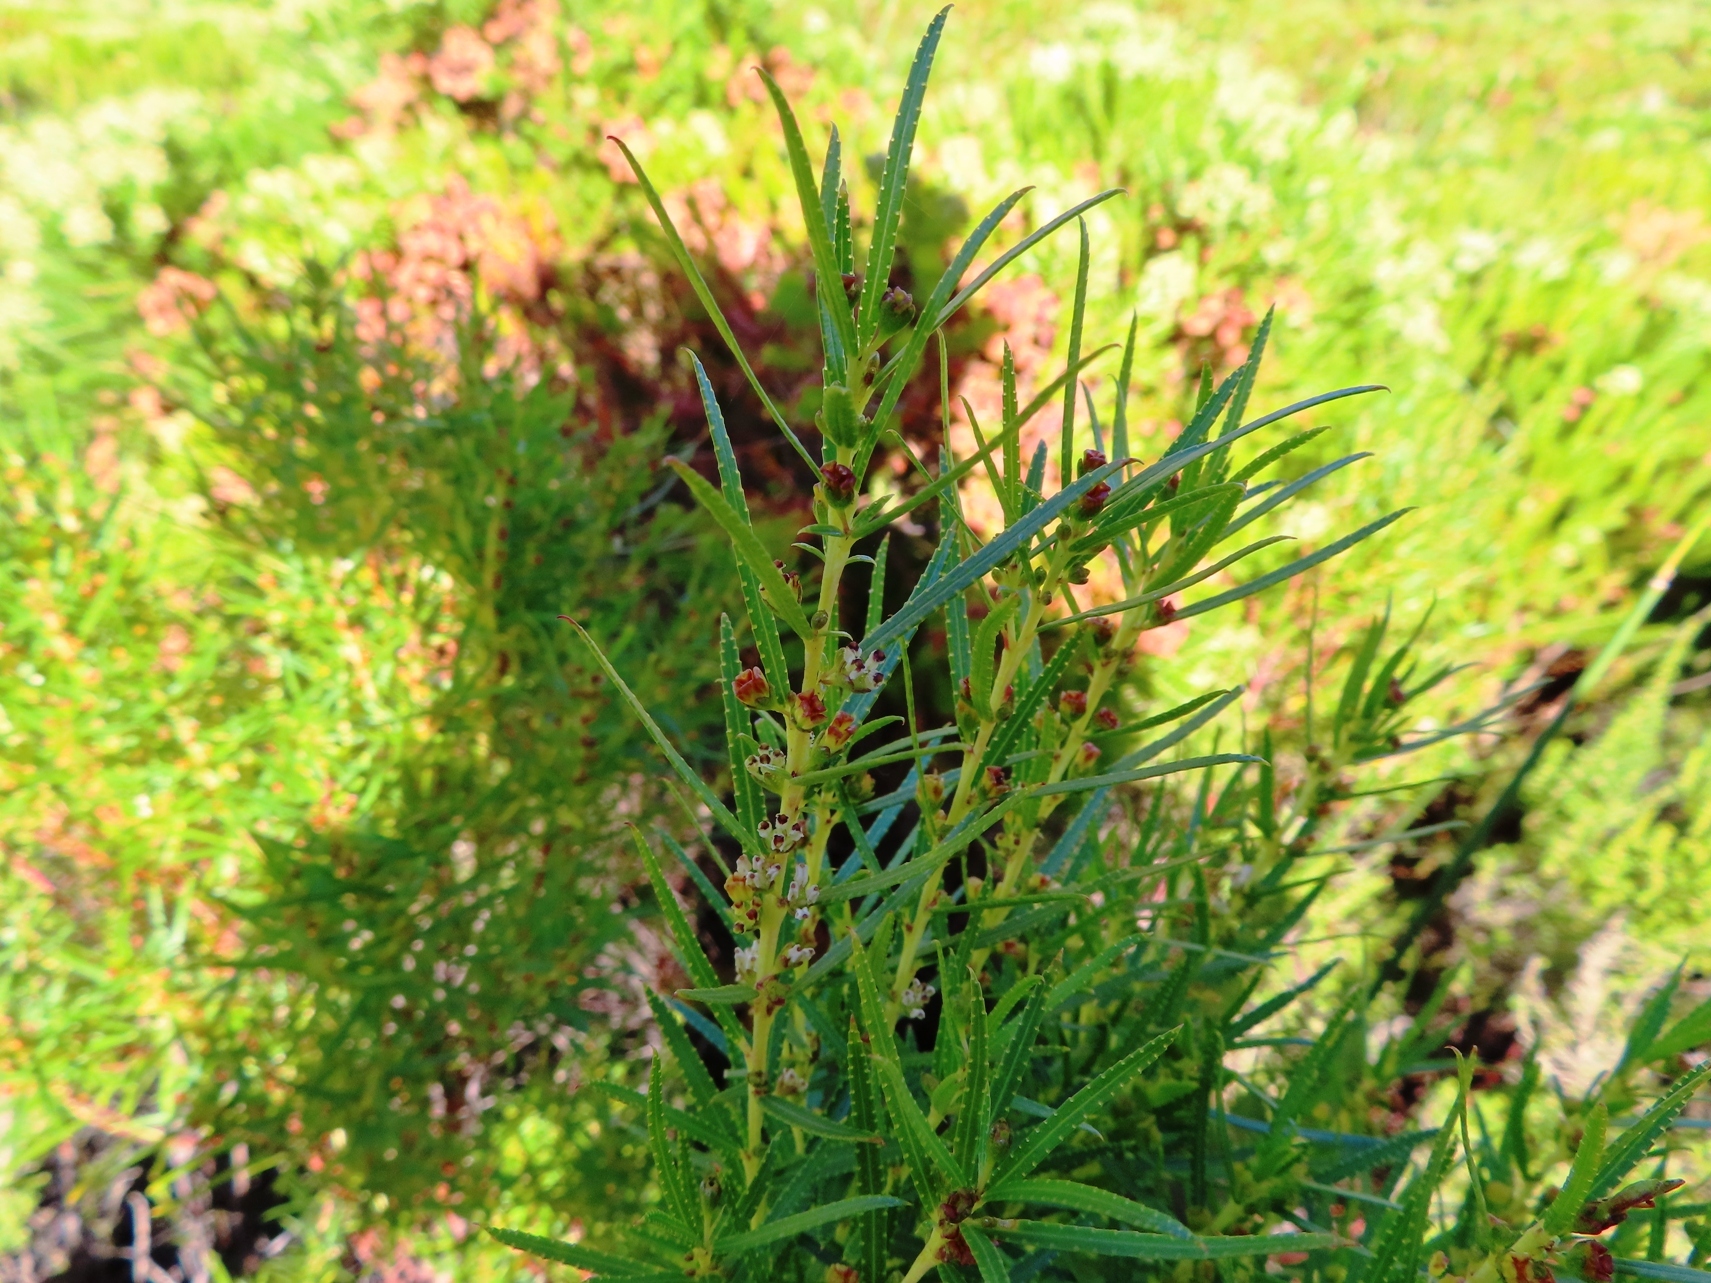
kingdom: Plantae
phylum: Tracheophyta
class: Magnoliopsida
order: Sapindales
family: Rutaceae
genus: Empleurum
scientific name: Empleurum unicapsulare
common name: False buchu
